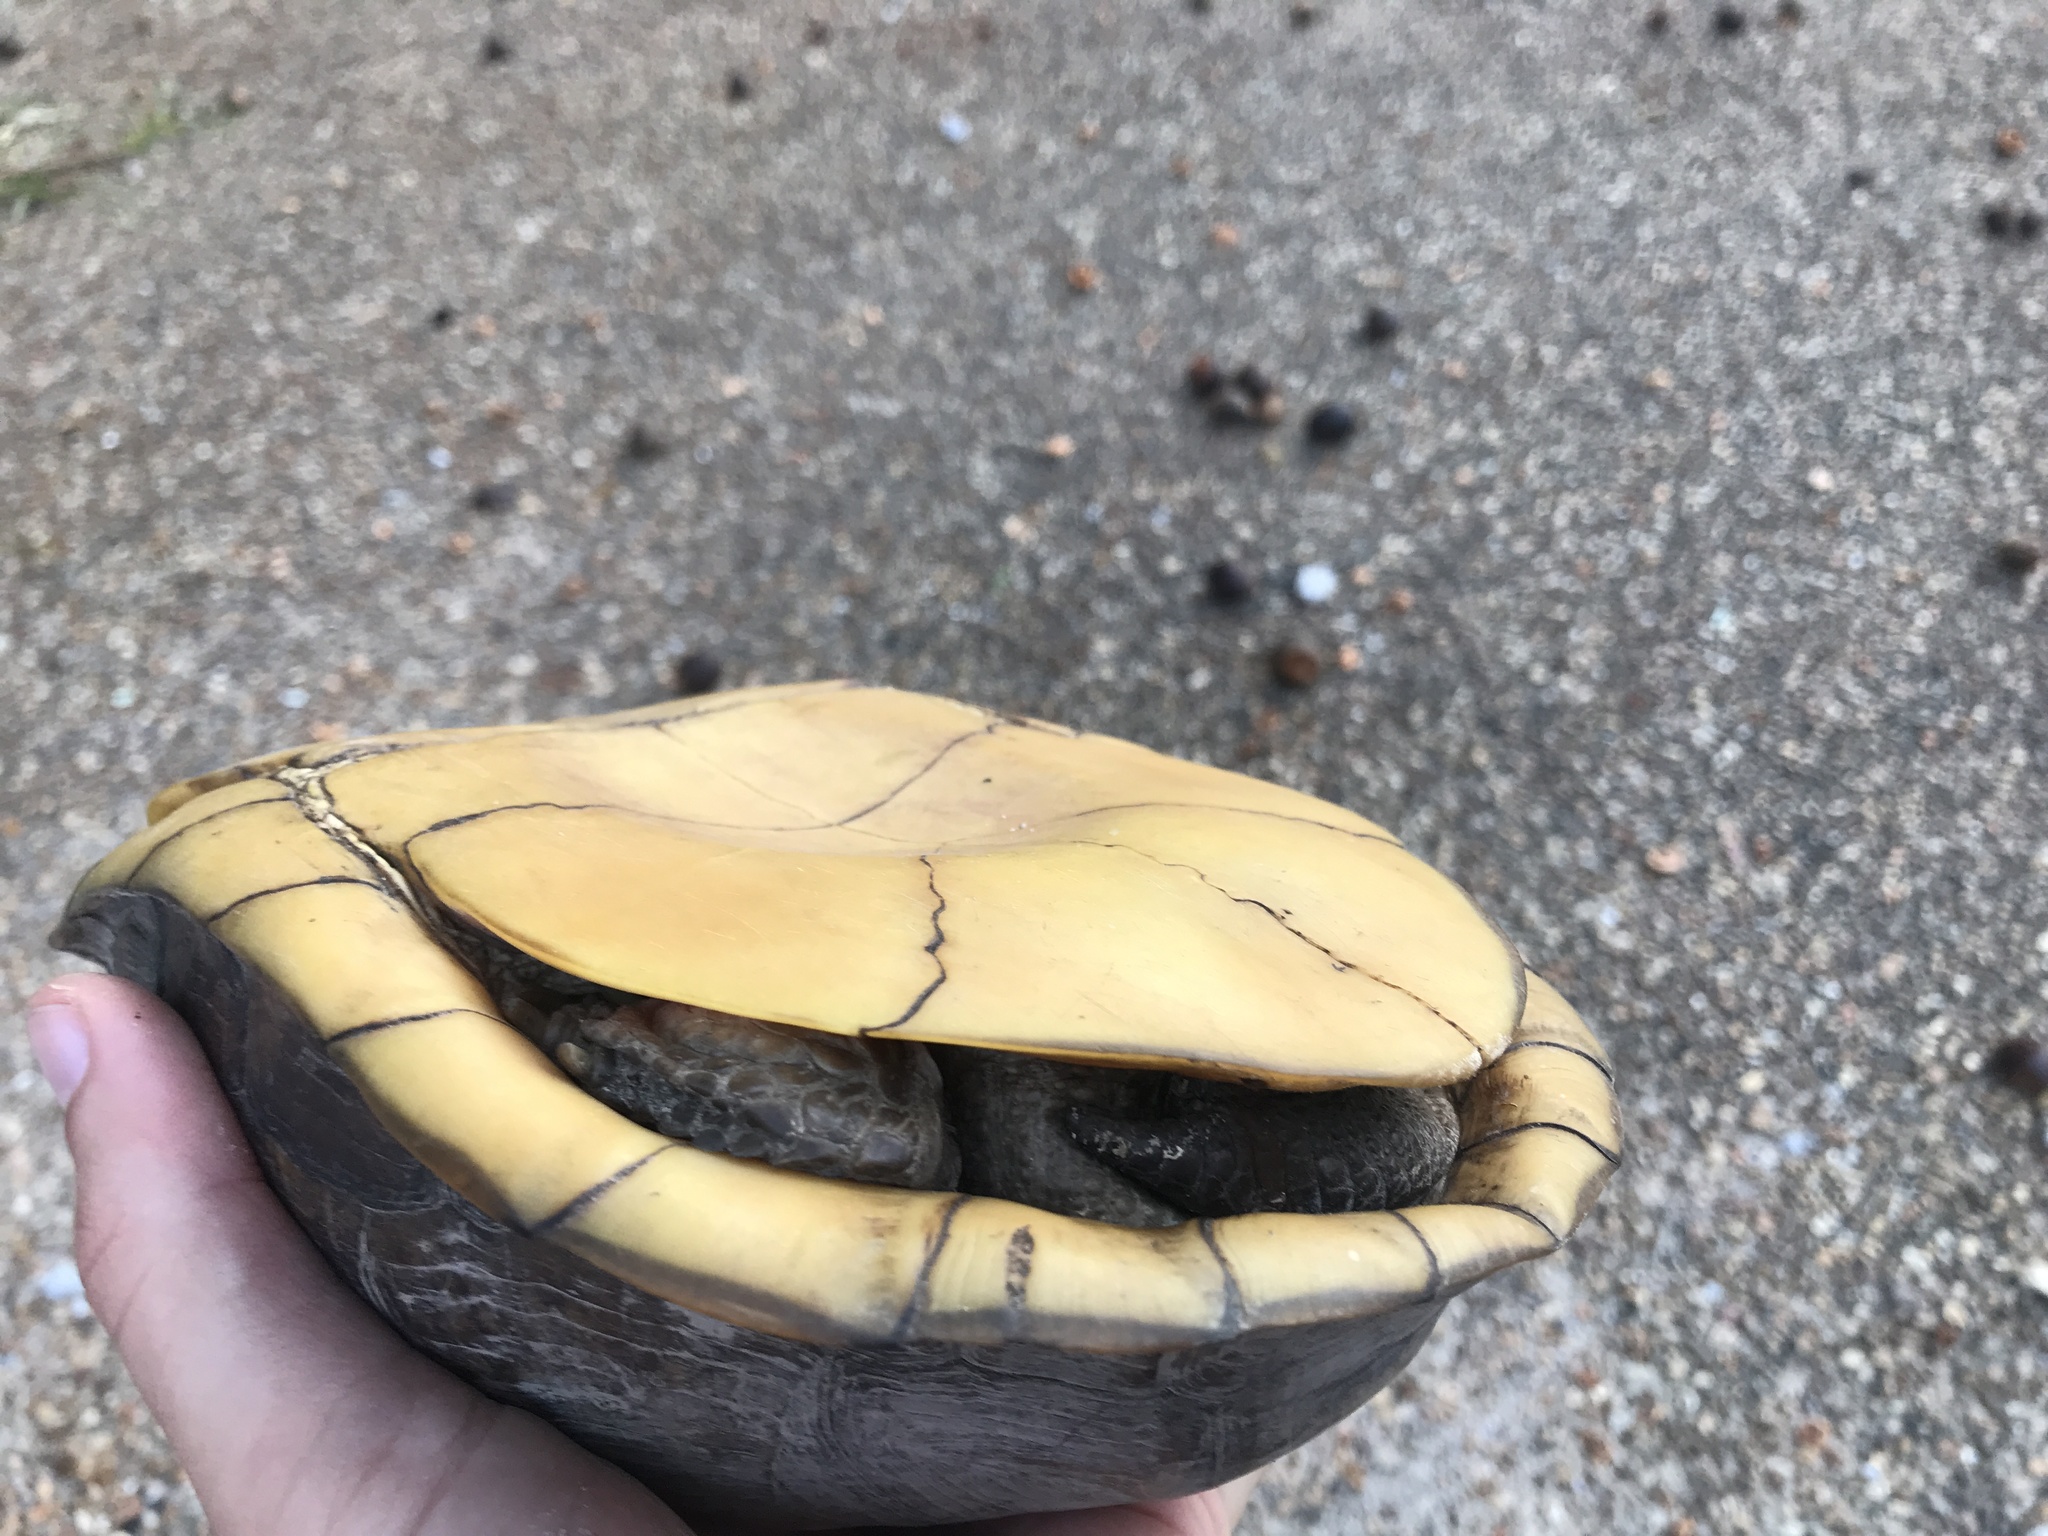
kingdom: Animalia
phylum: Chordata
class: Testudines
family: Emydidae
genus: Terrapene
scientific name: Terrapene carolina
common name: Common box turtle
